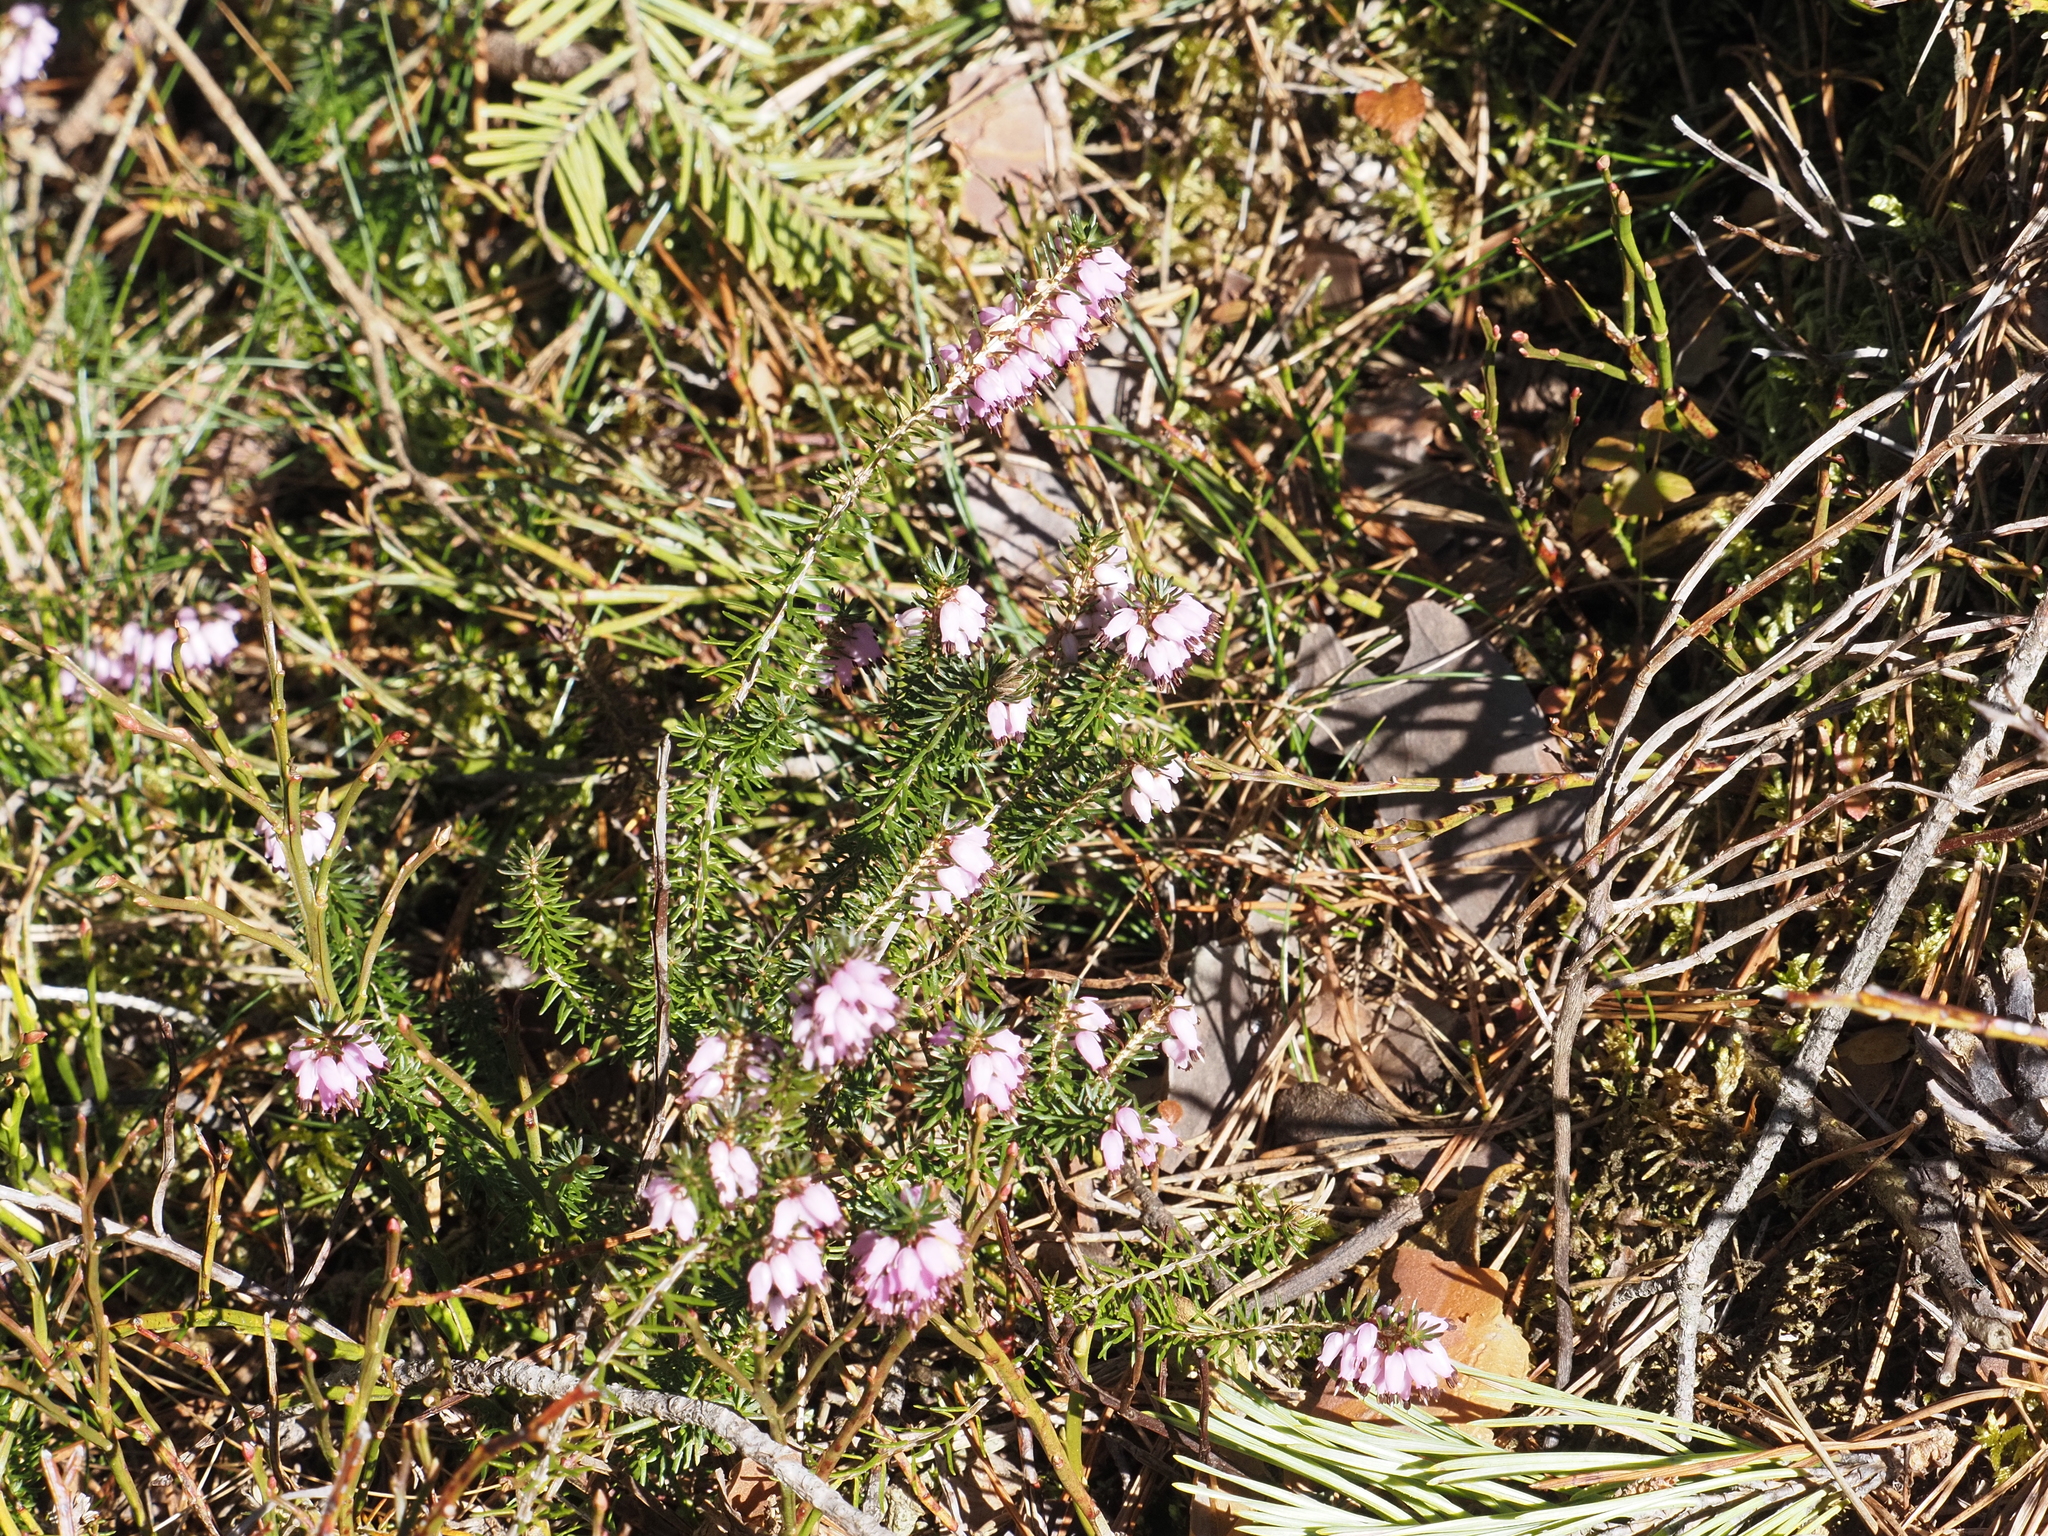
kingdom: Plantae
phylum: Tracheophyta
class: Magnoliopsida
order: Ericales
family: Ericaceae
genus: Erica
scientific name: Erica carnea
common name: Winter heath
